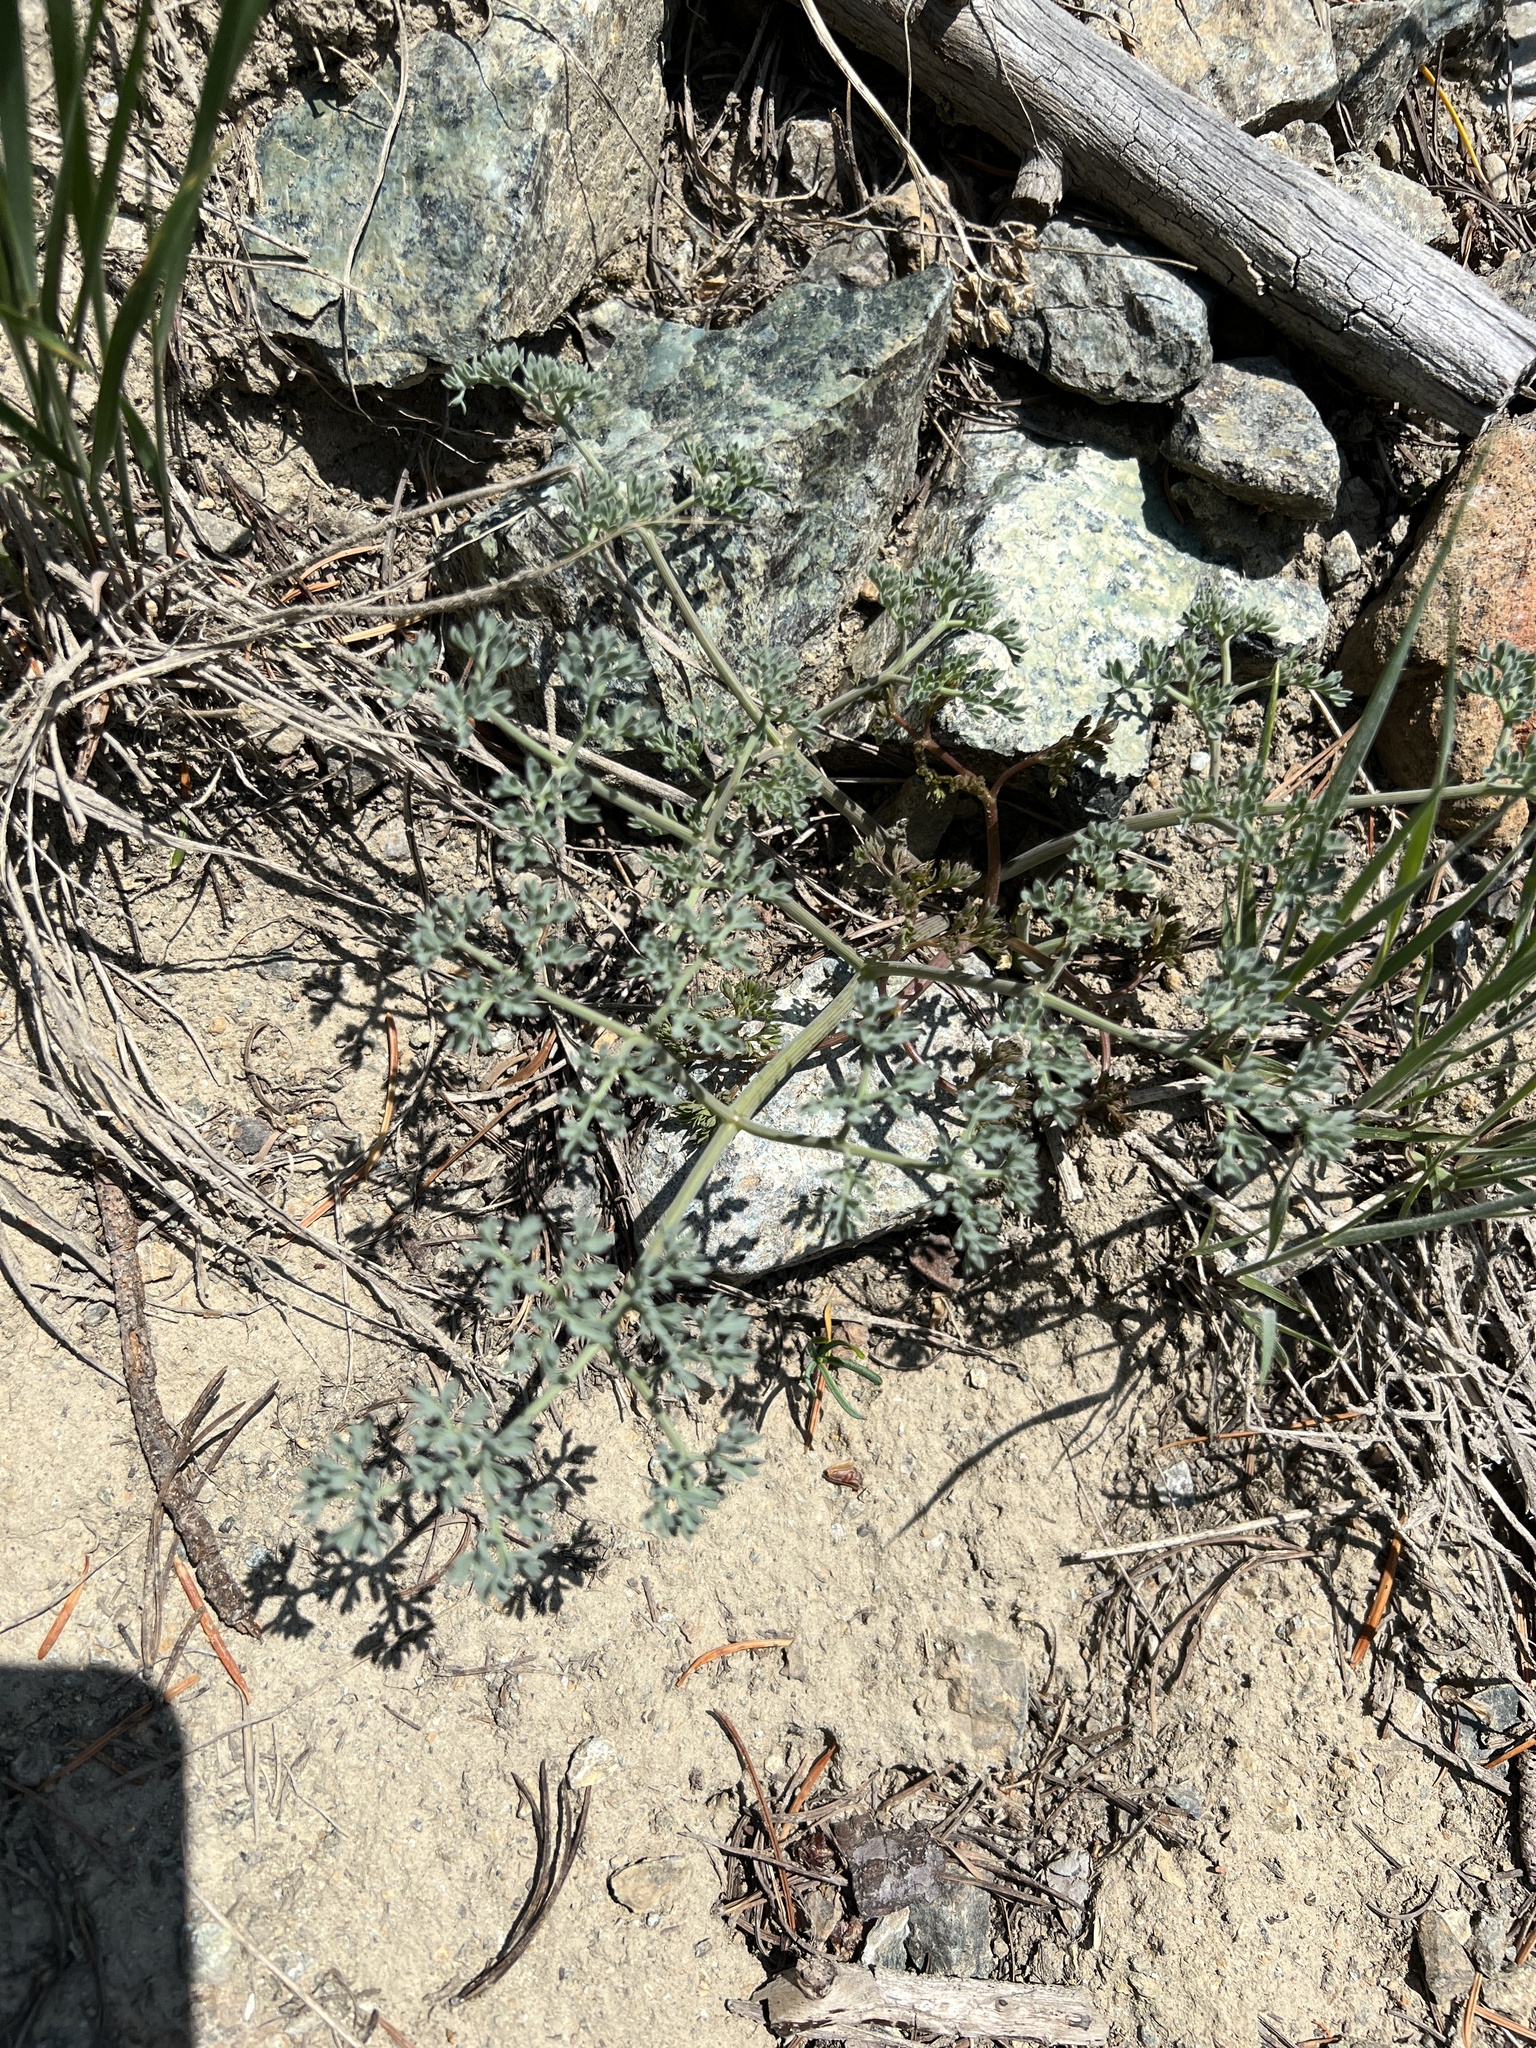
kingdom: Plantae
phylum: Tracheophyta
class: Magnoliopsida
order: Apiales
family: Apiaceae
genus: Lomatium
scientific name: Lomatium cuspidatum
